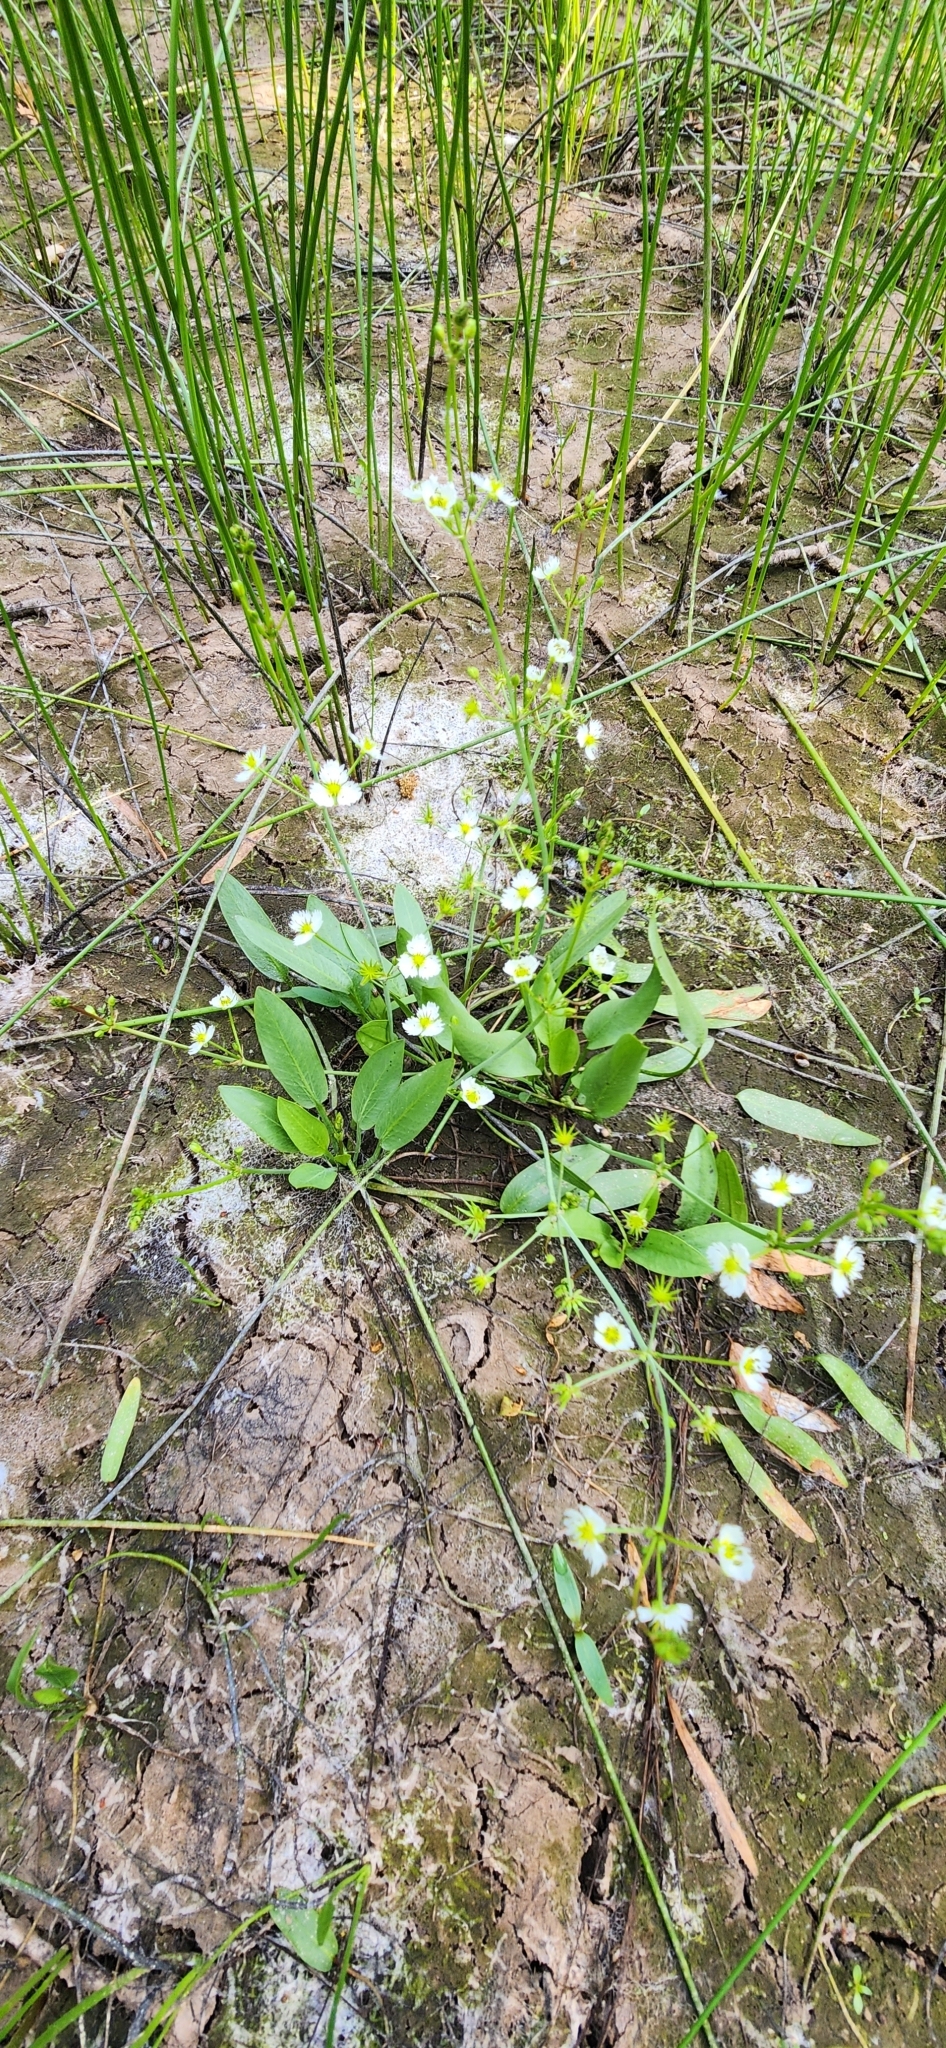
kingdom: Plantae
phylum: Tracheophyta
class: Liliopsida
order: Alismatales
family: Alismataceae
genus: Damasonium
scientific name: Damasonium californicum
